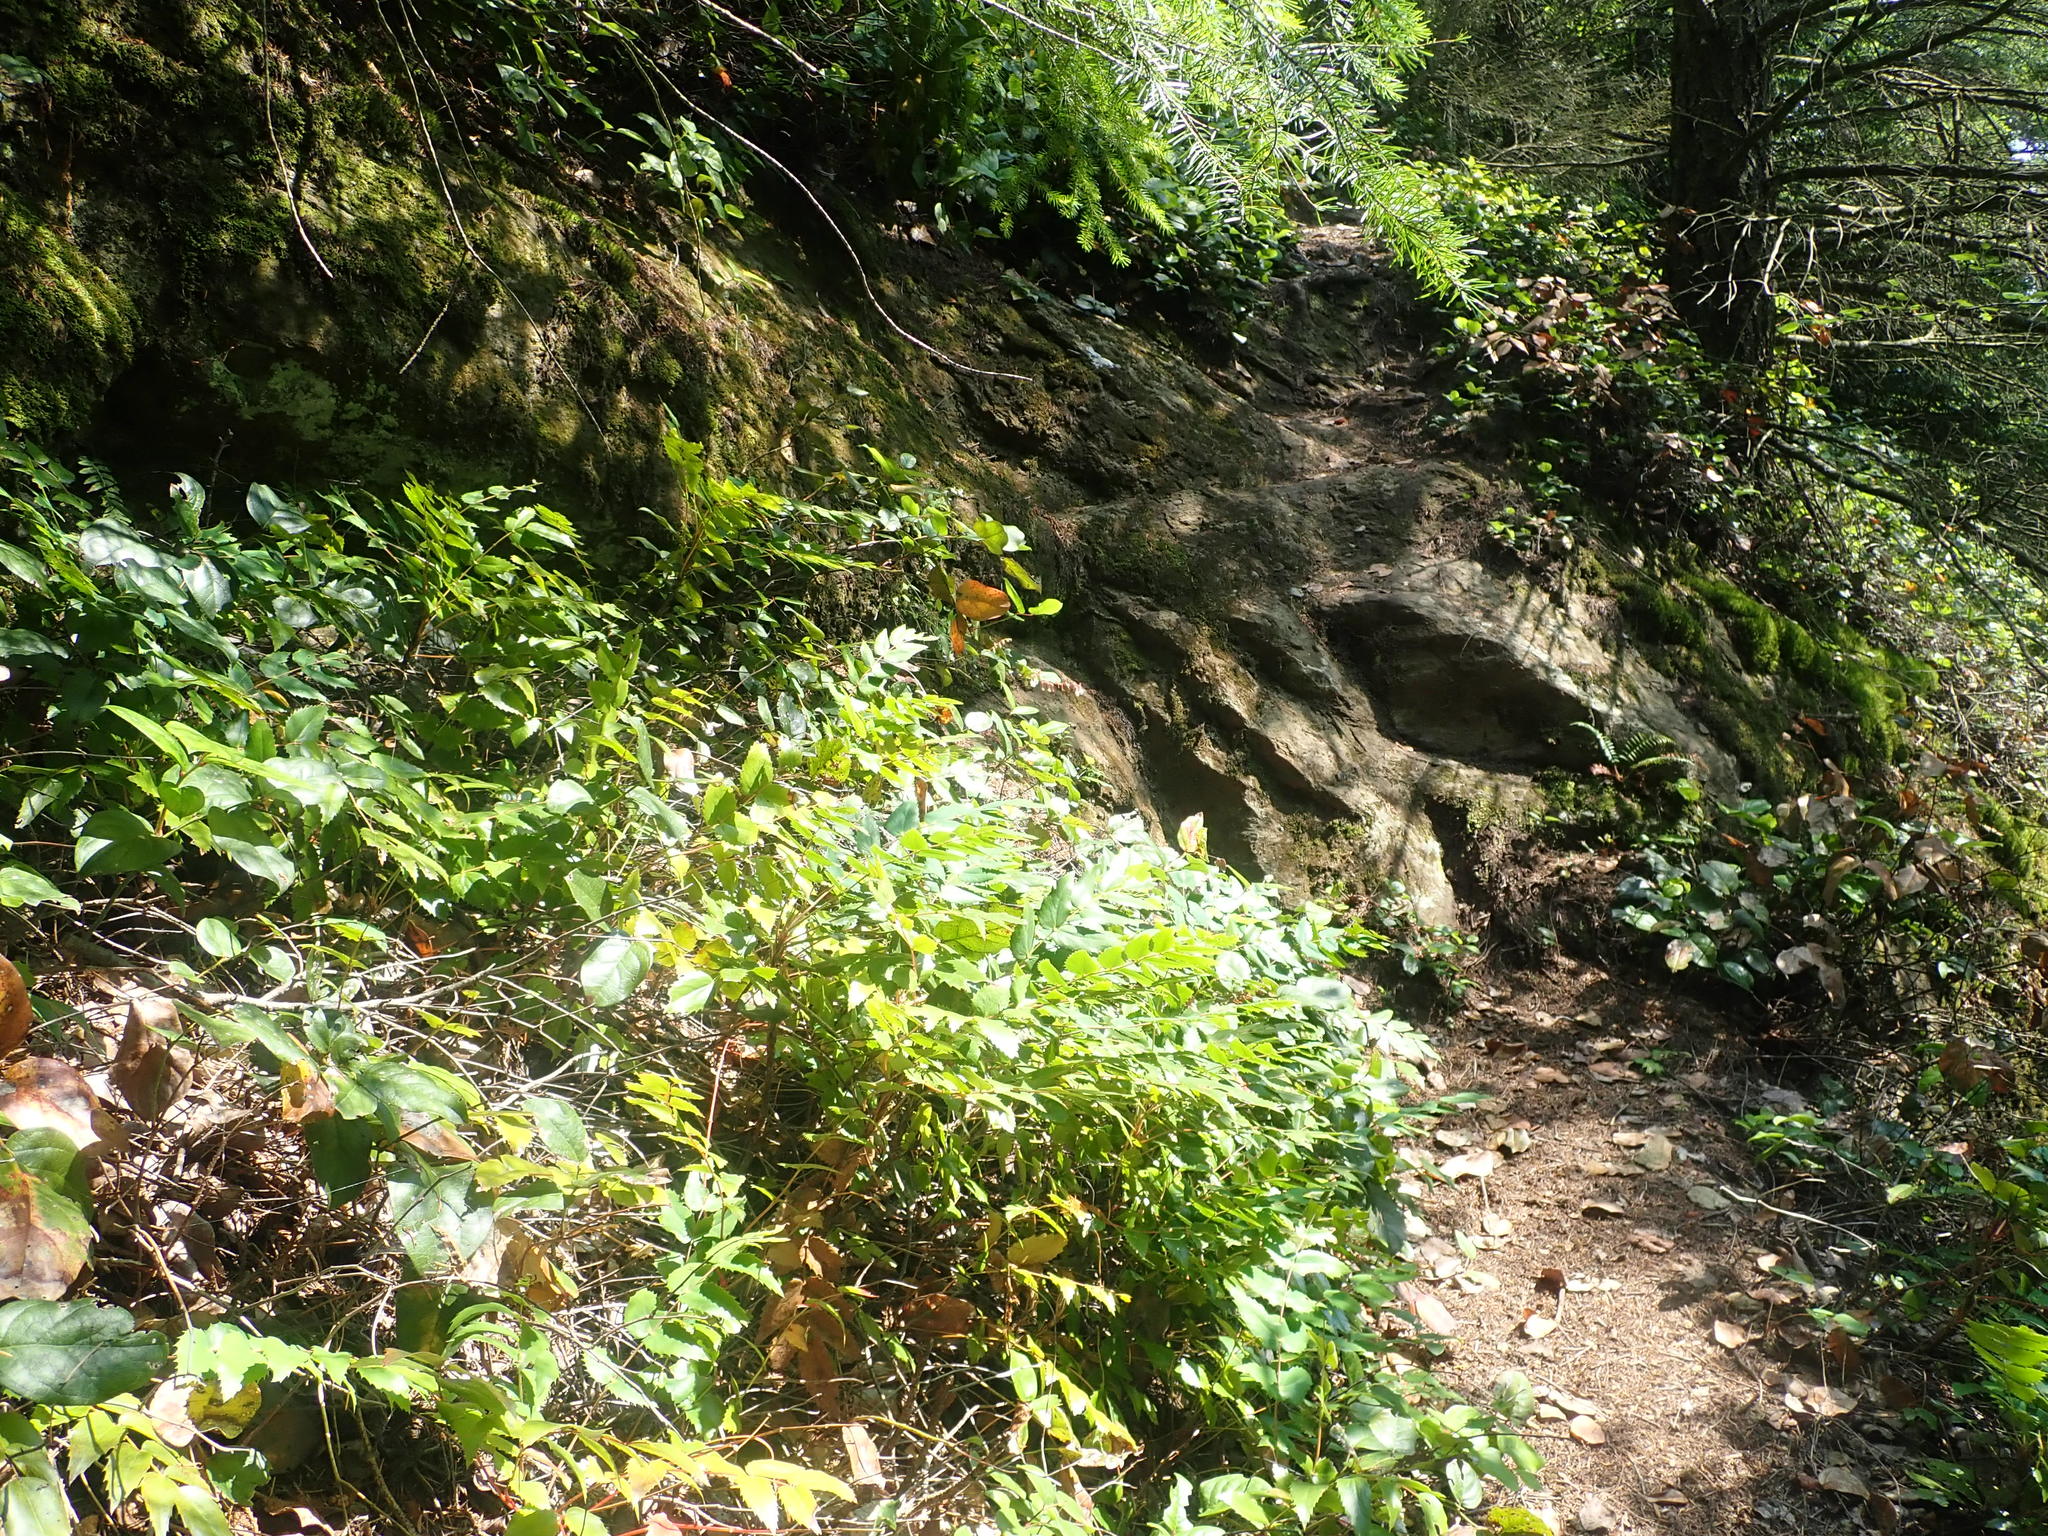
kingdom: Plantae
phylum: Tracheophyta
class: Magnoliopsida
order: Asterales
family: Campanulaceae
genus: Campanula
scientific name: Campanula scouleri
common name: Scouler's harebell
